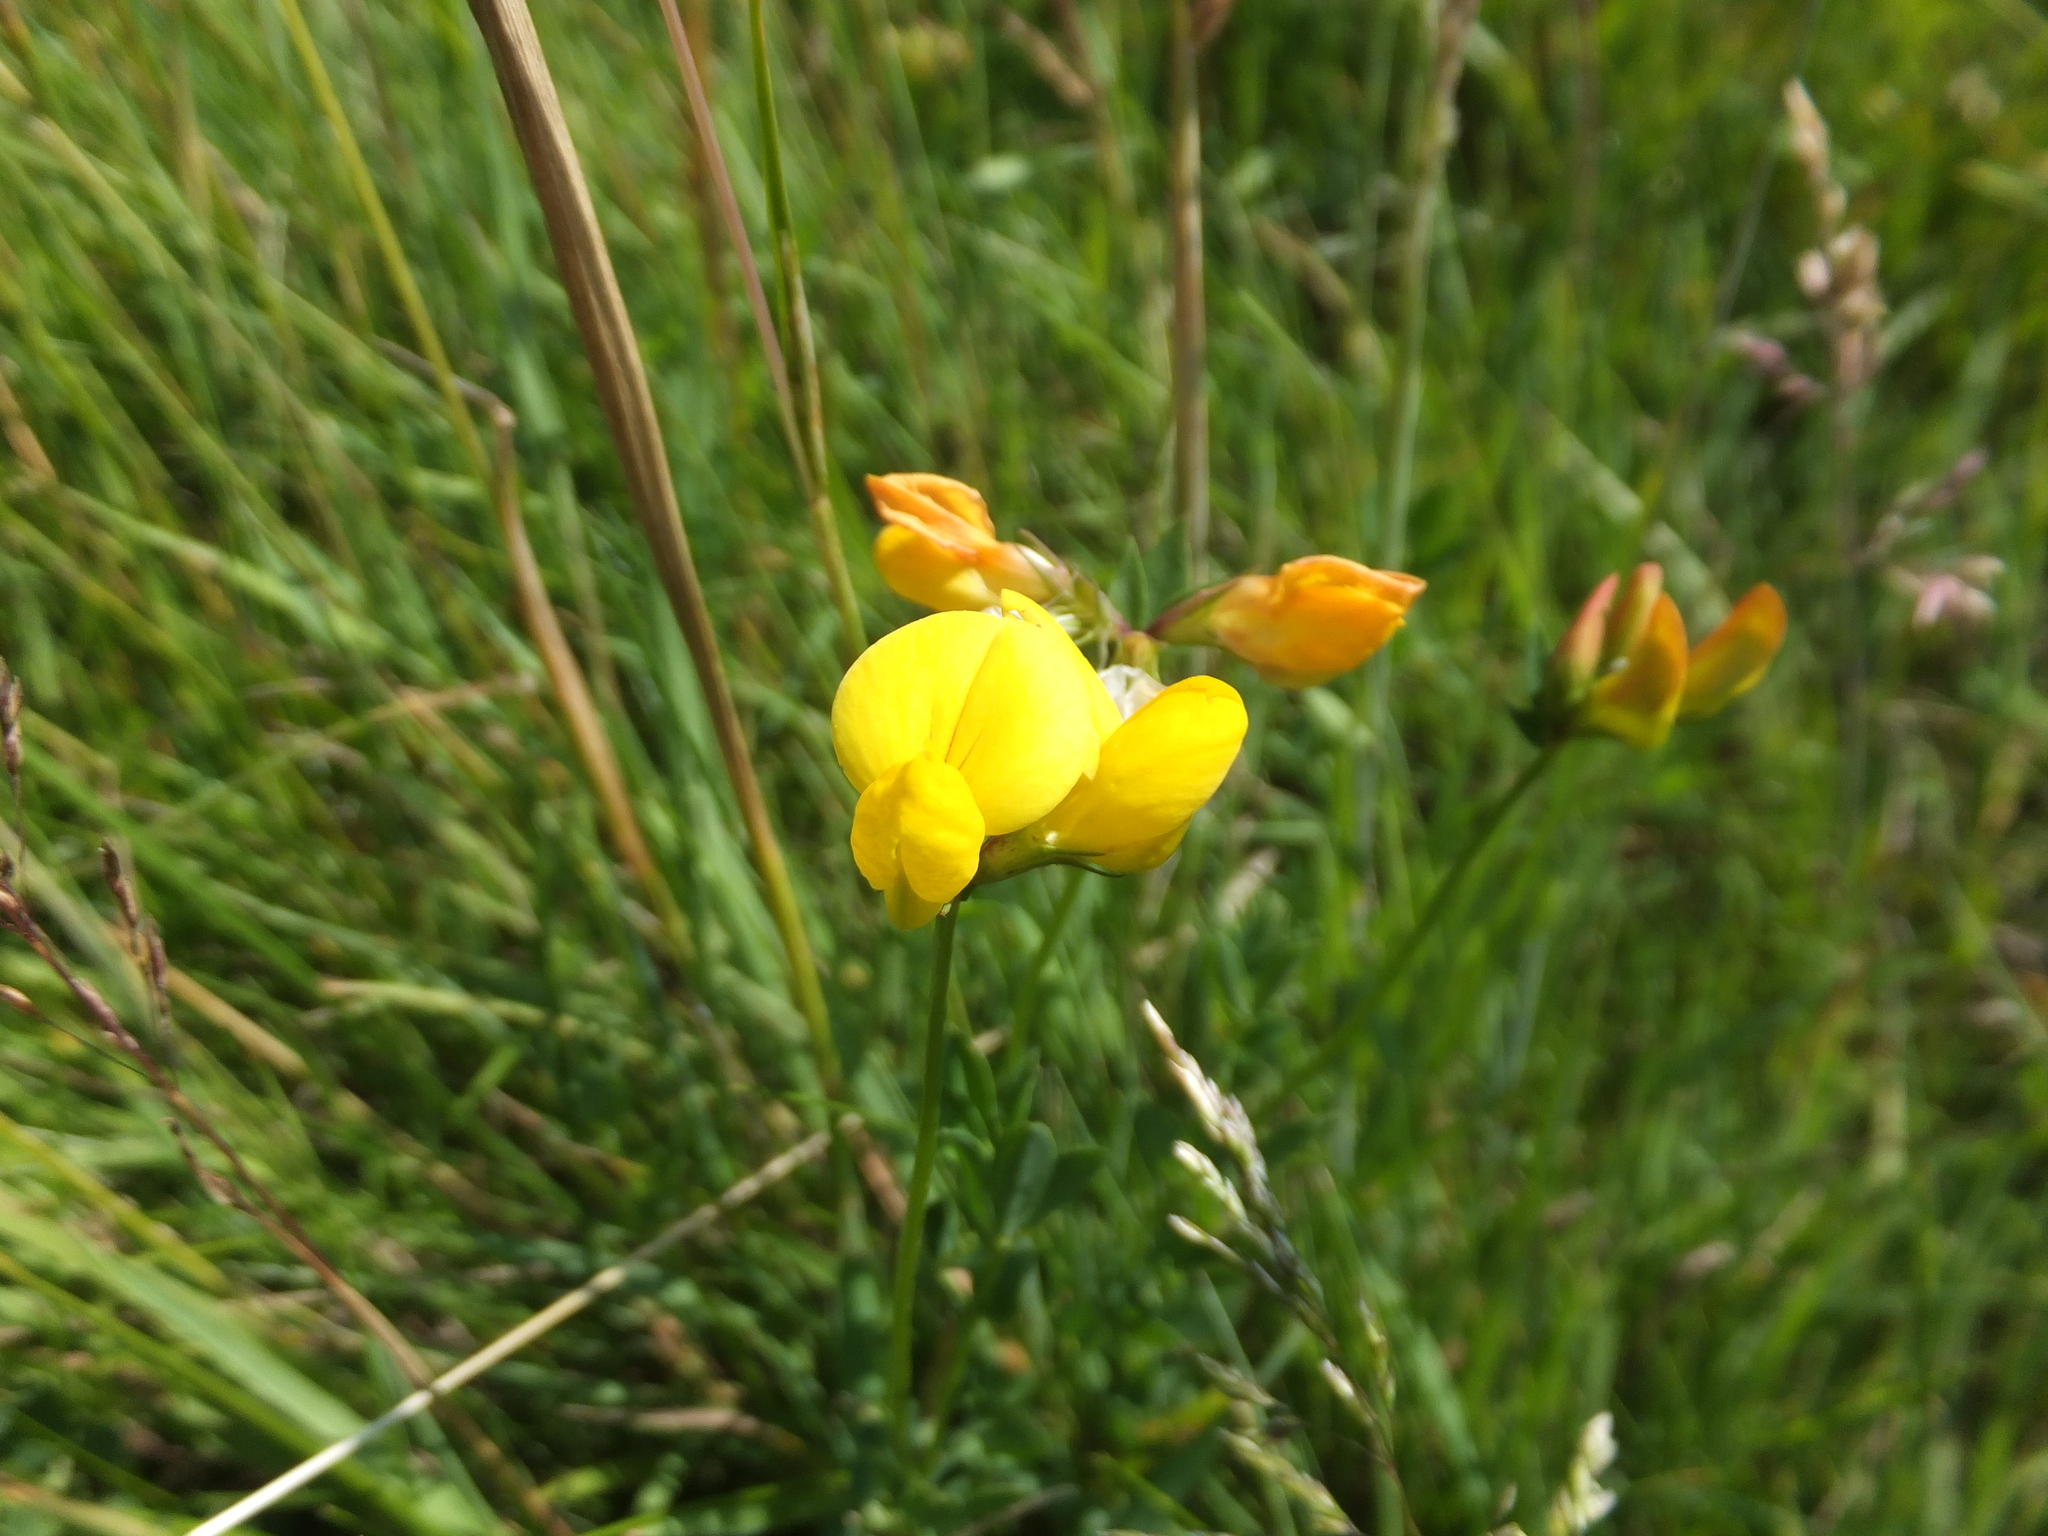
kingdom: Plantae
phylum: Tracheophyta
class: Magnoliopsida
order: Fabales
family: Fabaceae
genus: Lotus
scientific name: Lotus corniculatus
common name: Common bird's-foot-trefoil
